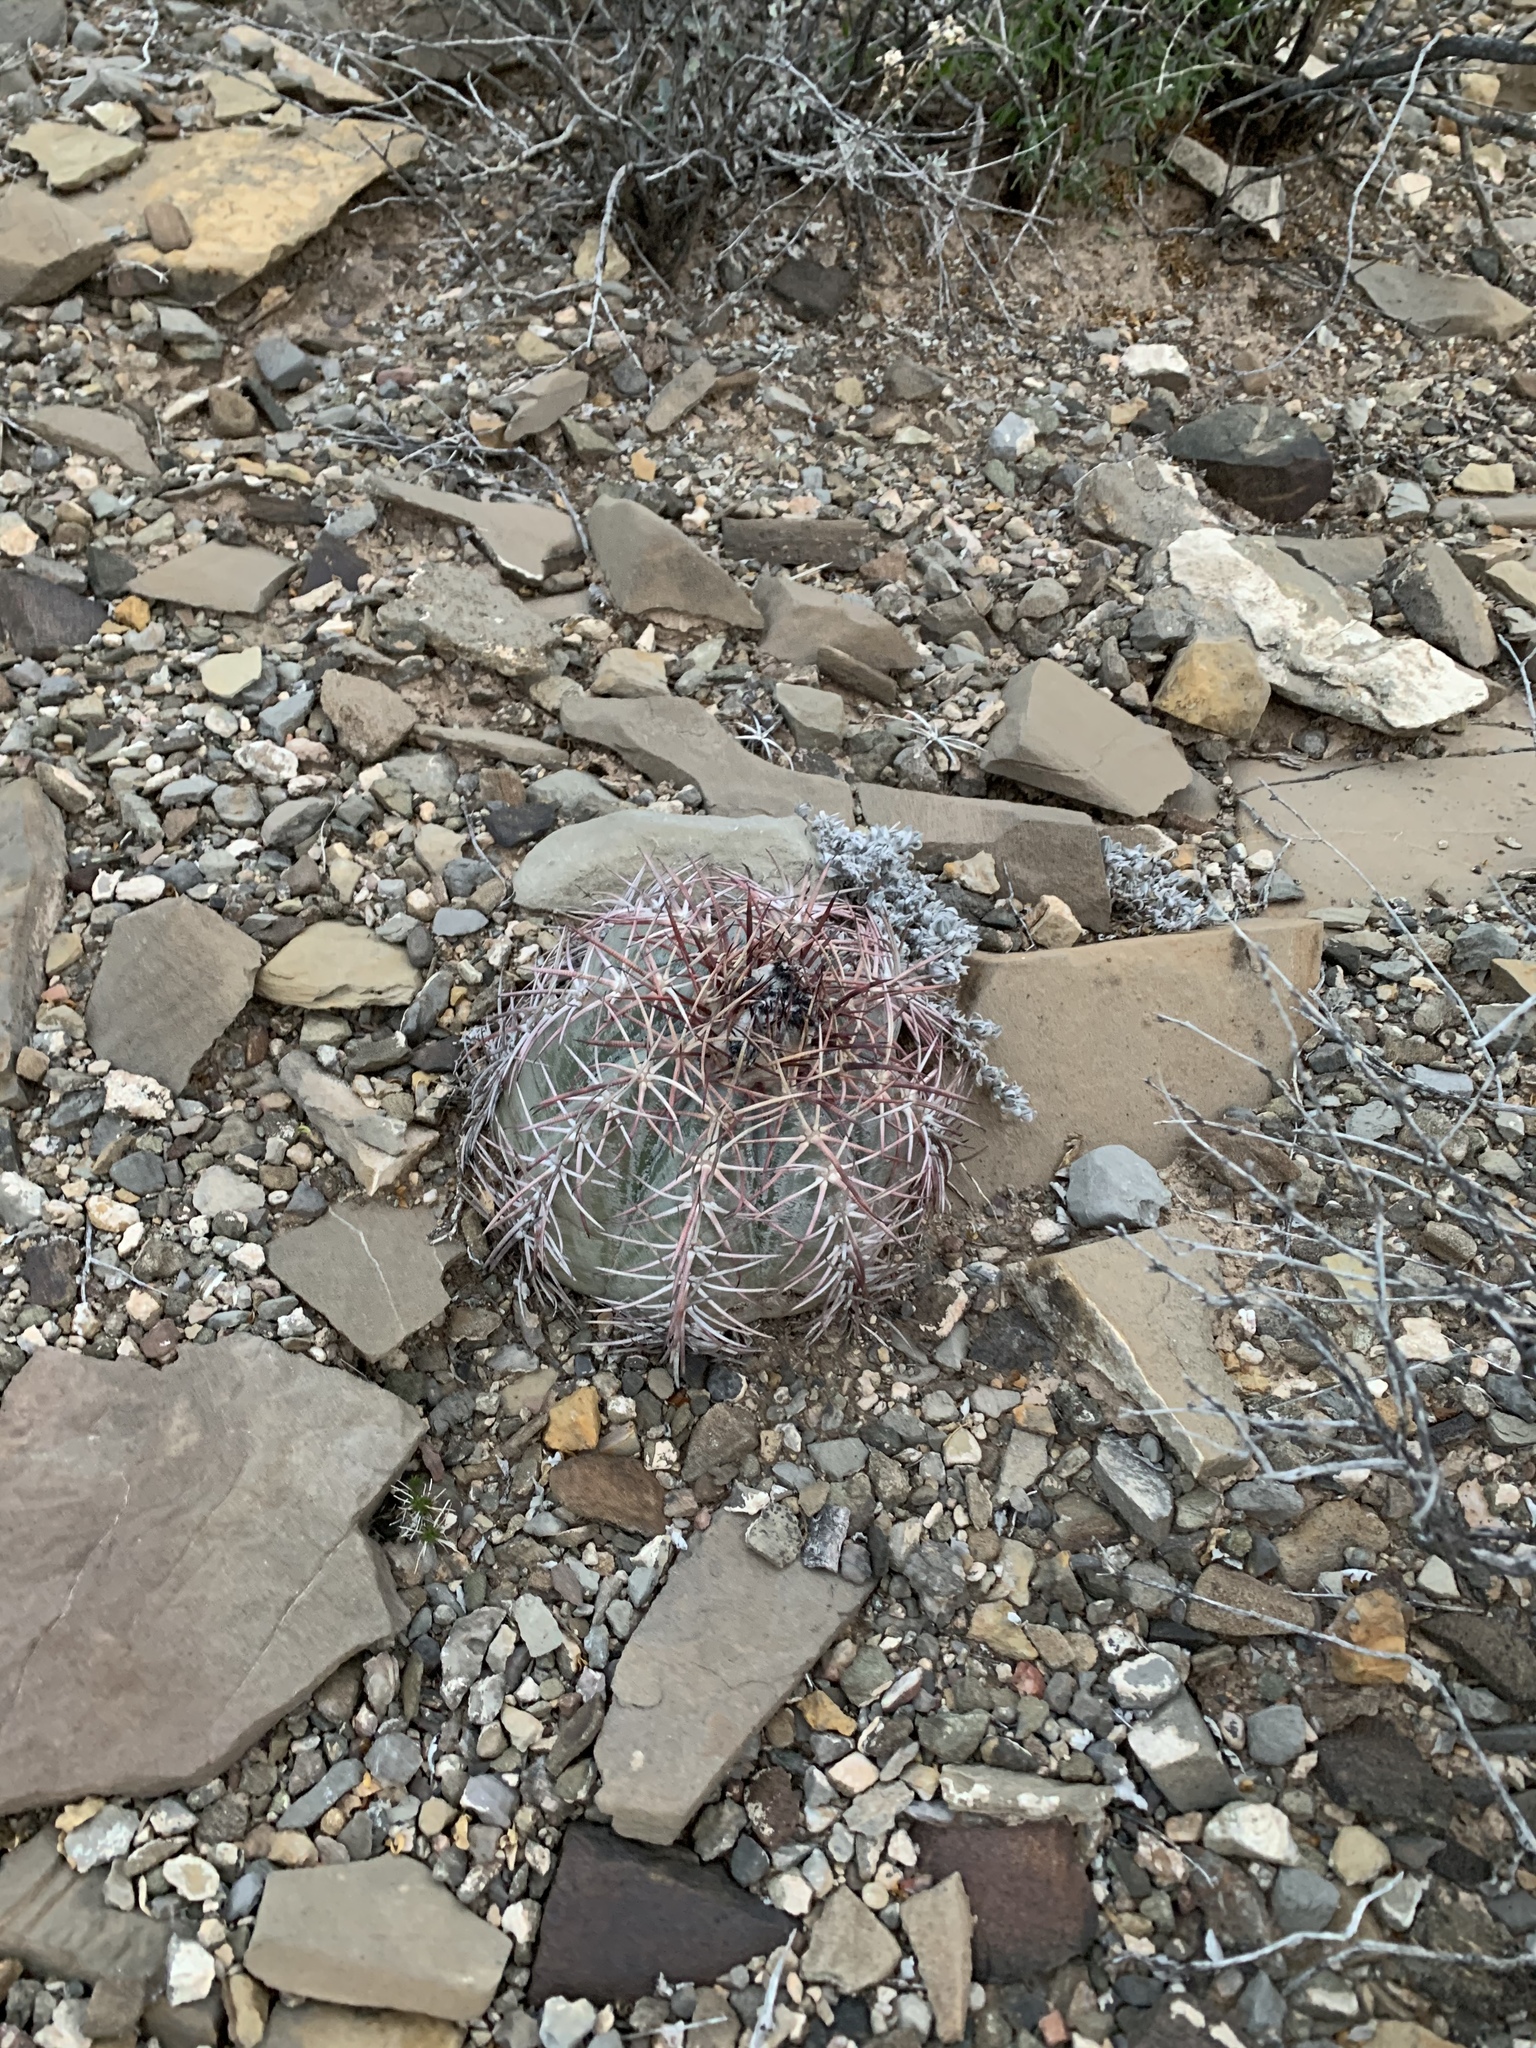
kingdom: Plantae
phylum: Tracheophyta
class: Magnoliopsida
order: Caryophyllales
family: Cactaceae
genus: Echinocactus
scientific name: Echinocactus horizonthalonius
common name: Devilshead
